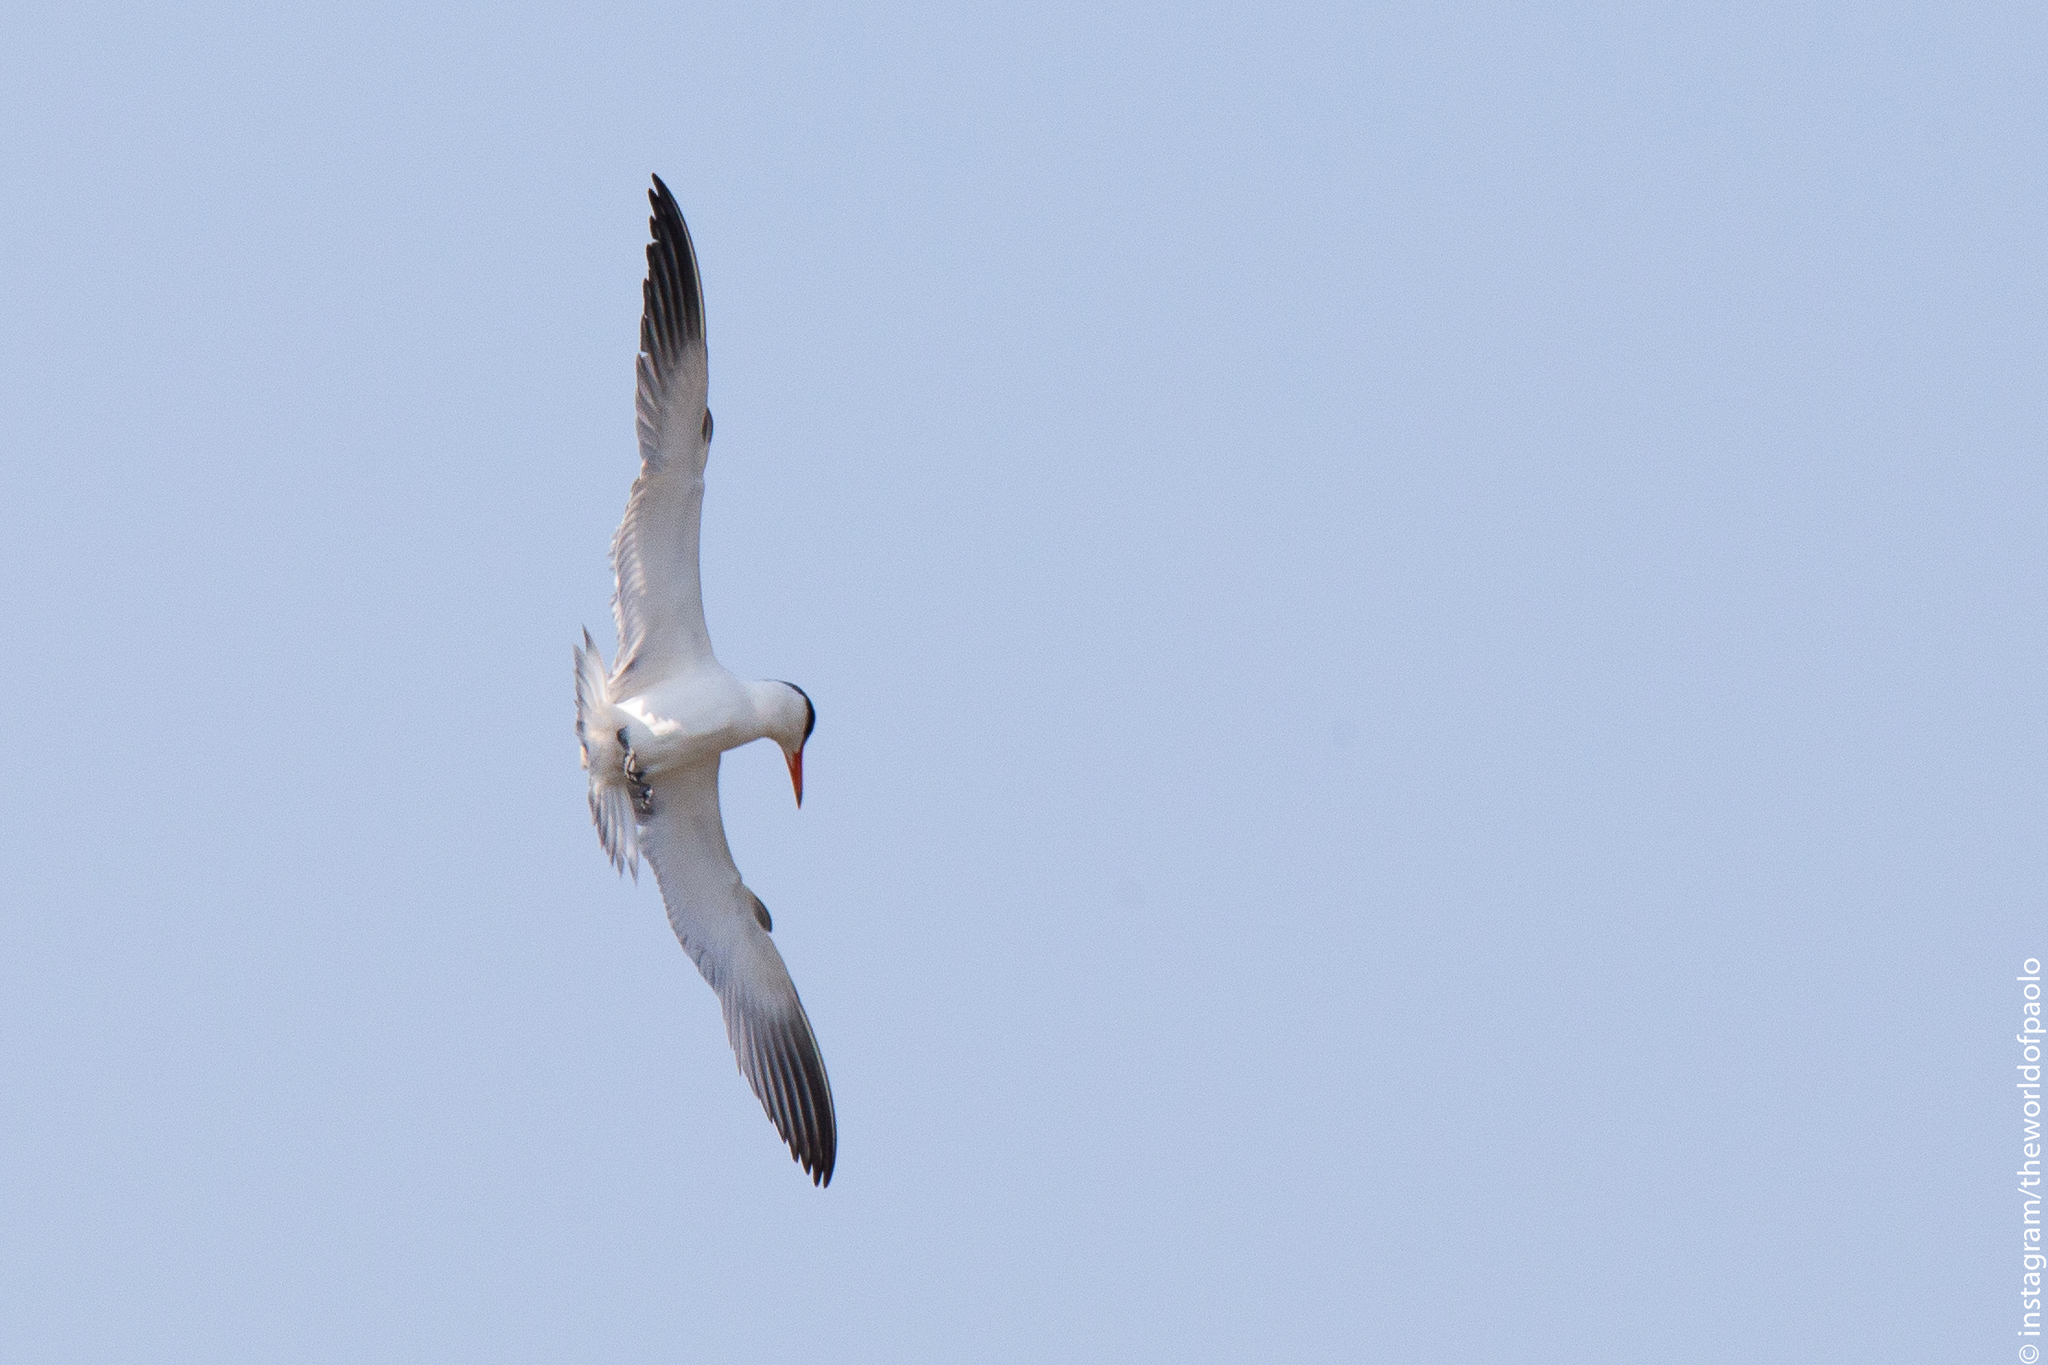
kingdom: Animalia
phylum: Chordata
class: Aves
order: Charadriiformes
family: Laridae
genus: Hydroprogne
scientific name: Hydroprogne caspia
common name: Caspian tern
